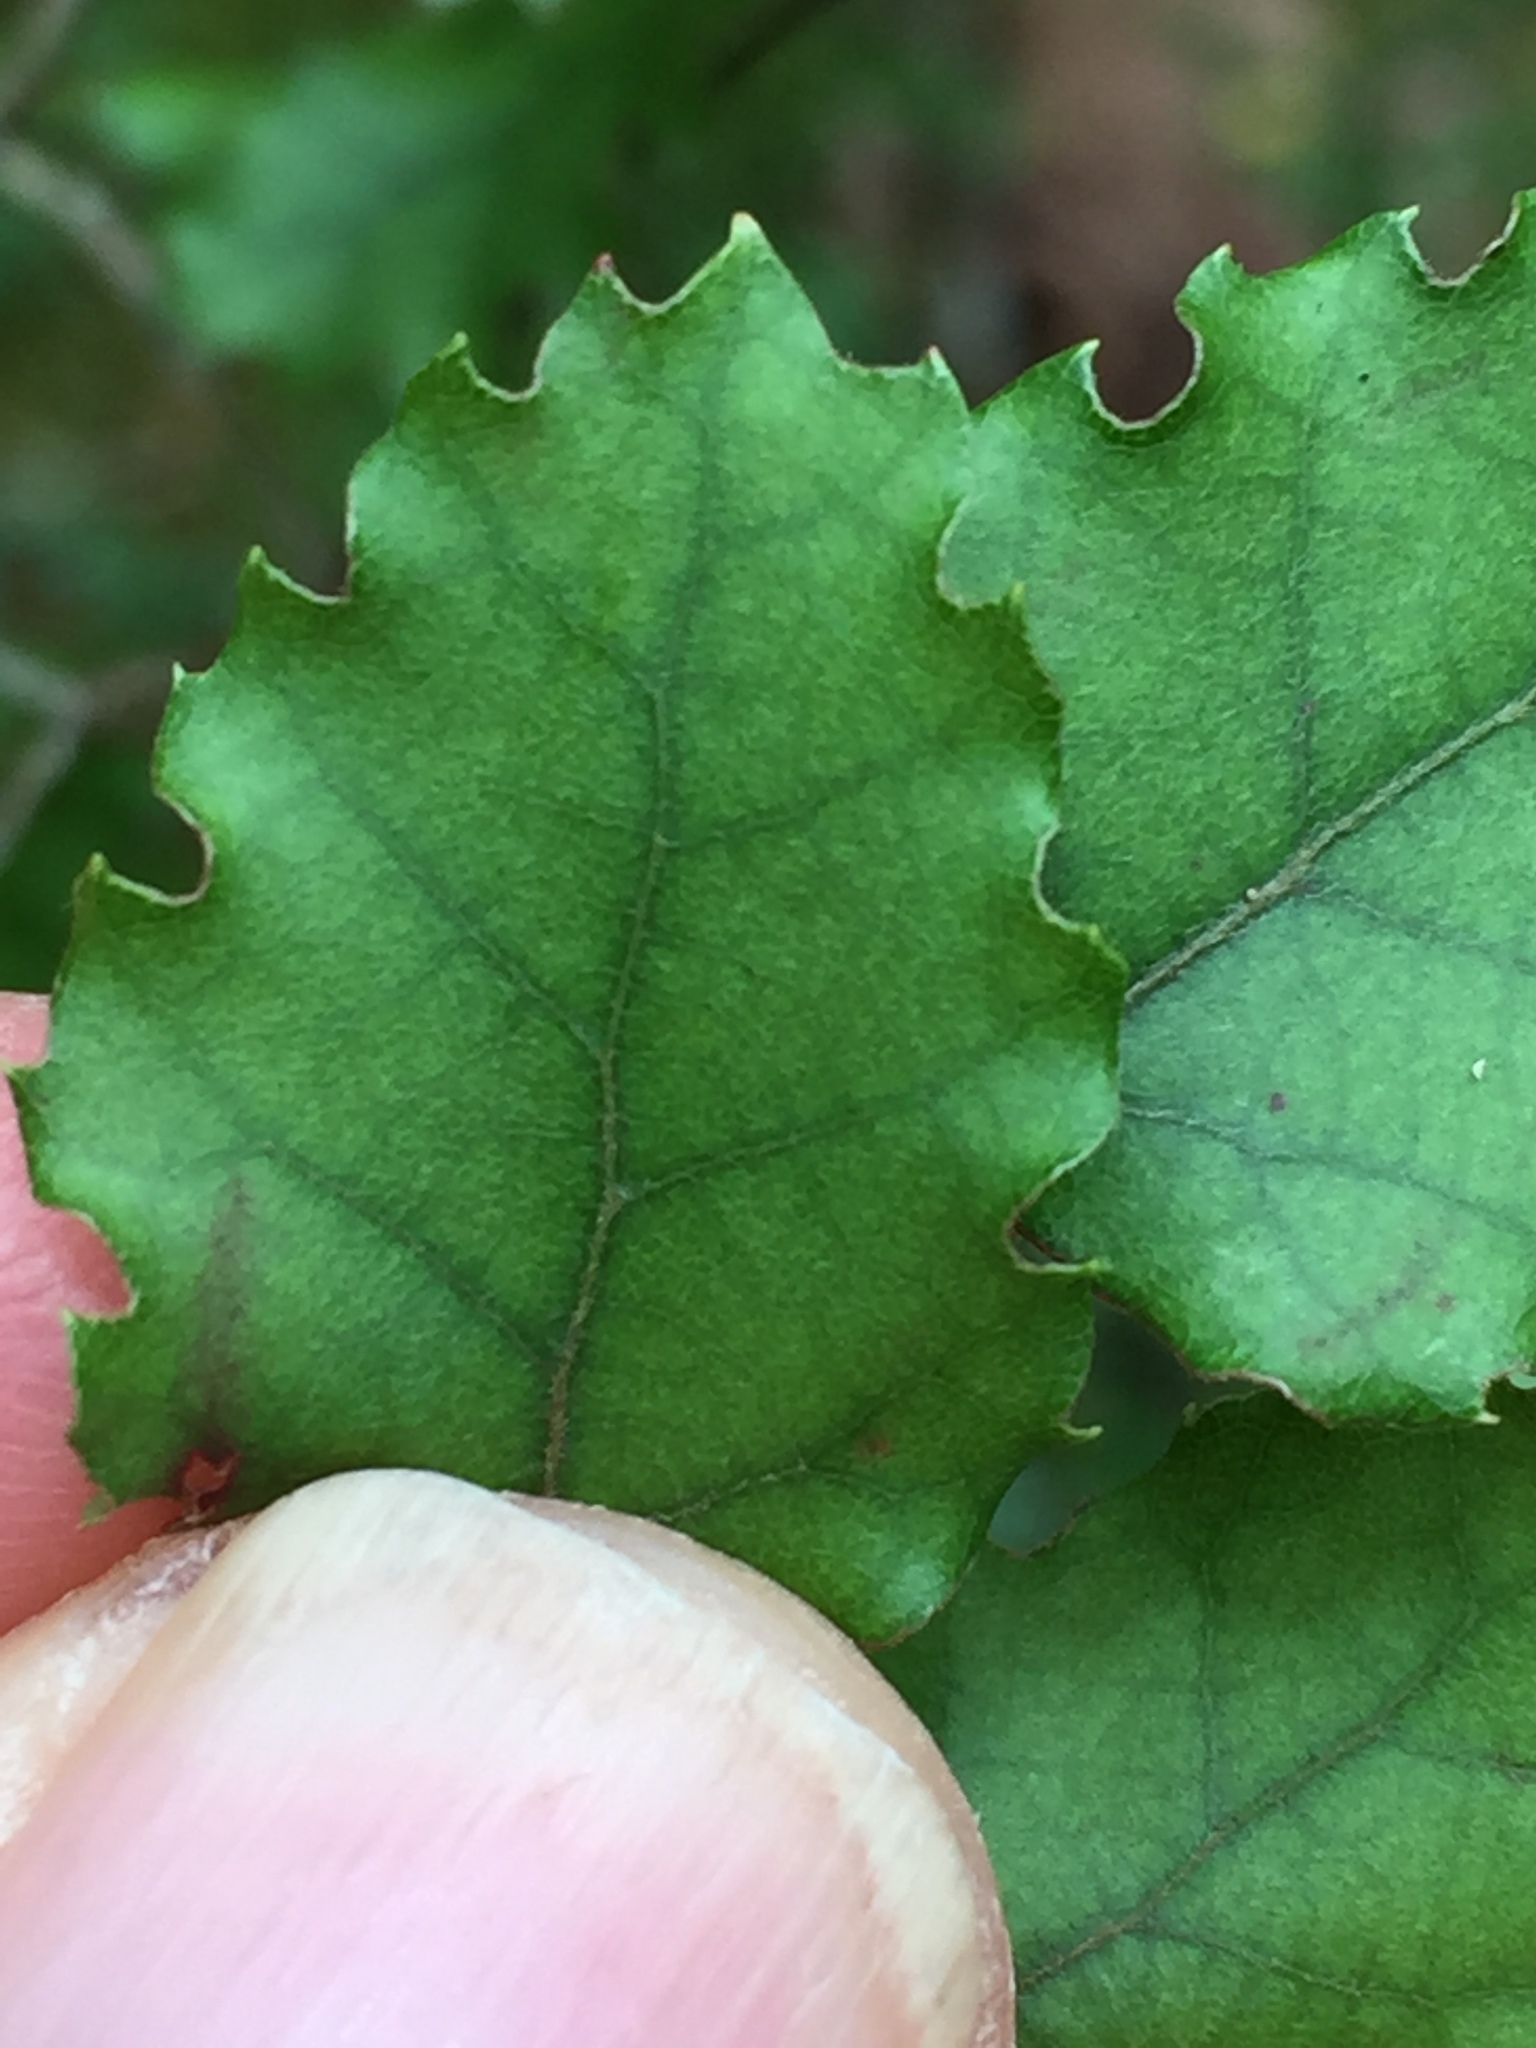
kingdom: Plantae
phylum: Tracheophyta
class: Magnoliopsida
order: Fagales
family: Nothofagaceae
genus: Nothofagus
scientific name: Nothofagus fusca
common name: Red beech
